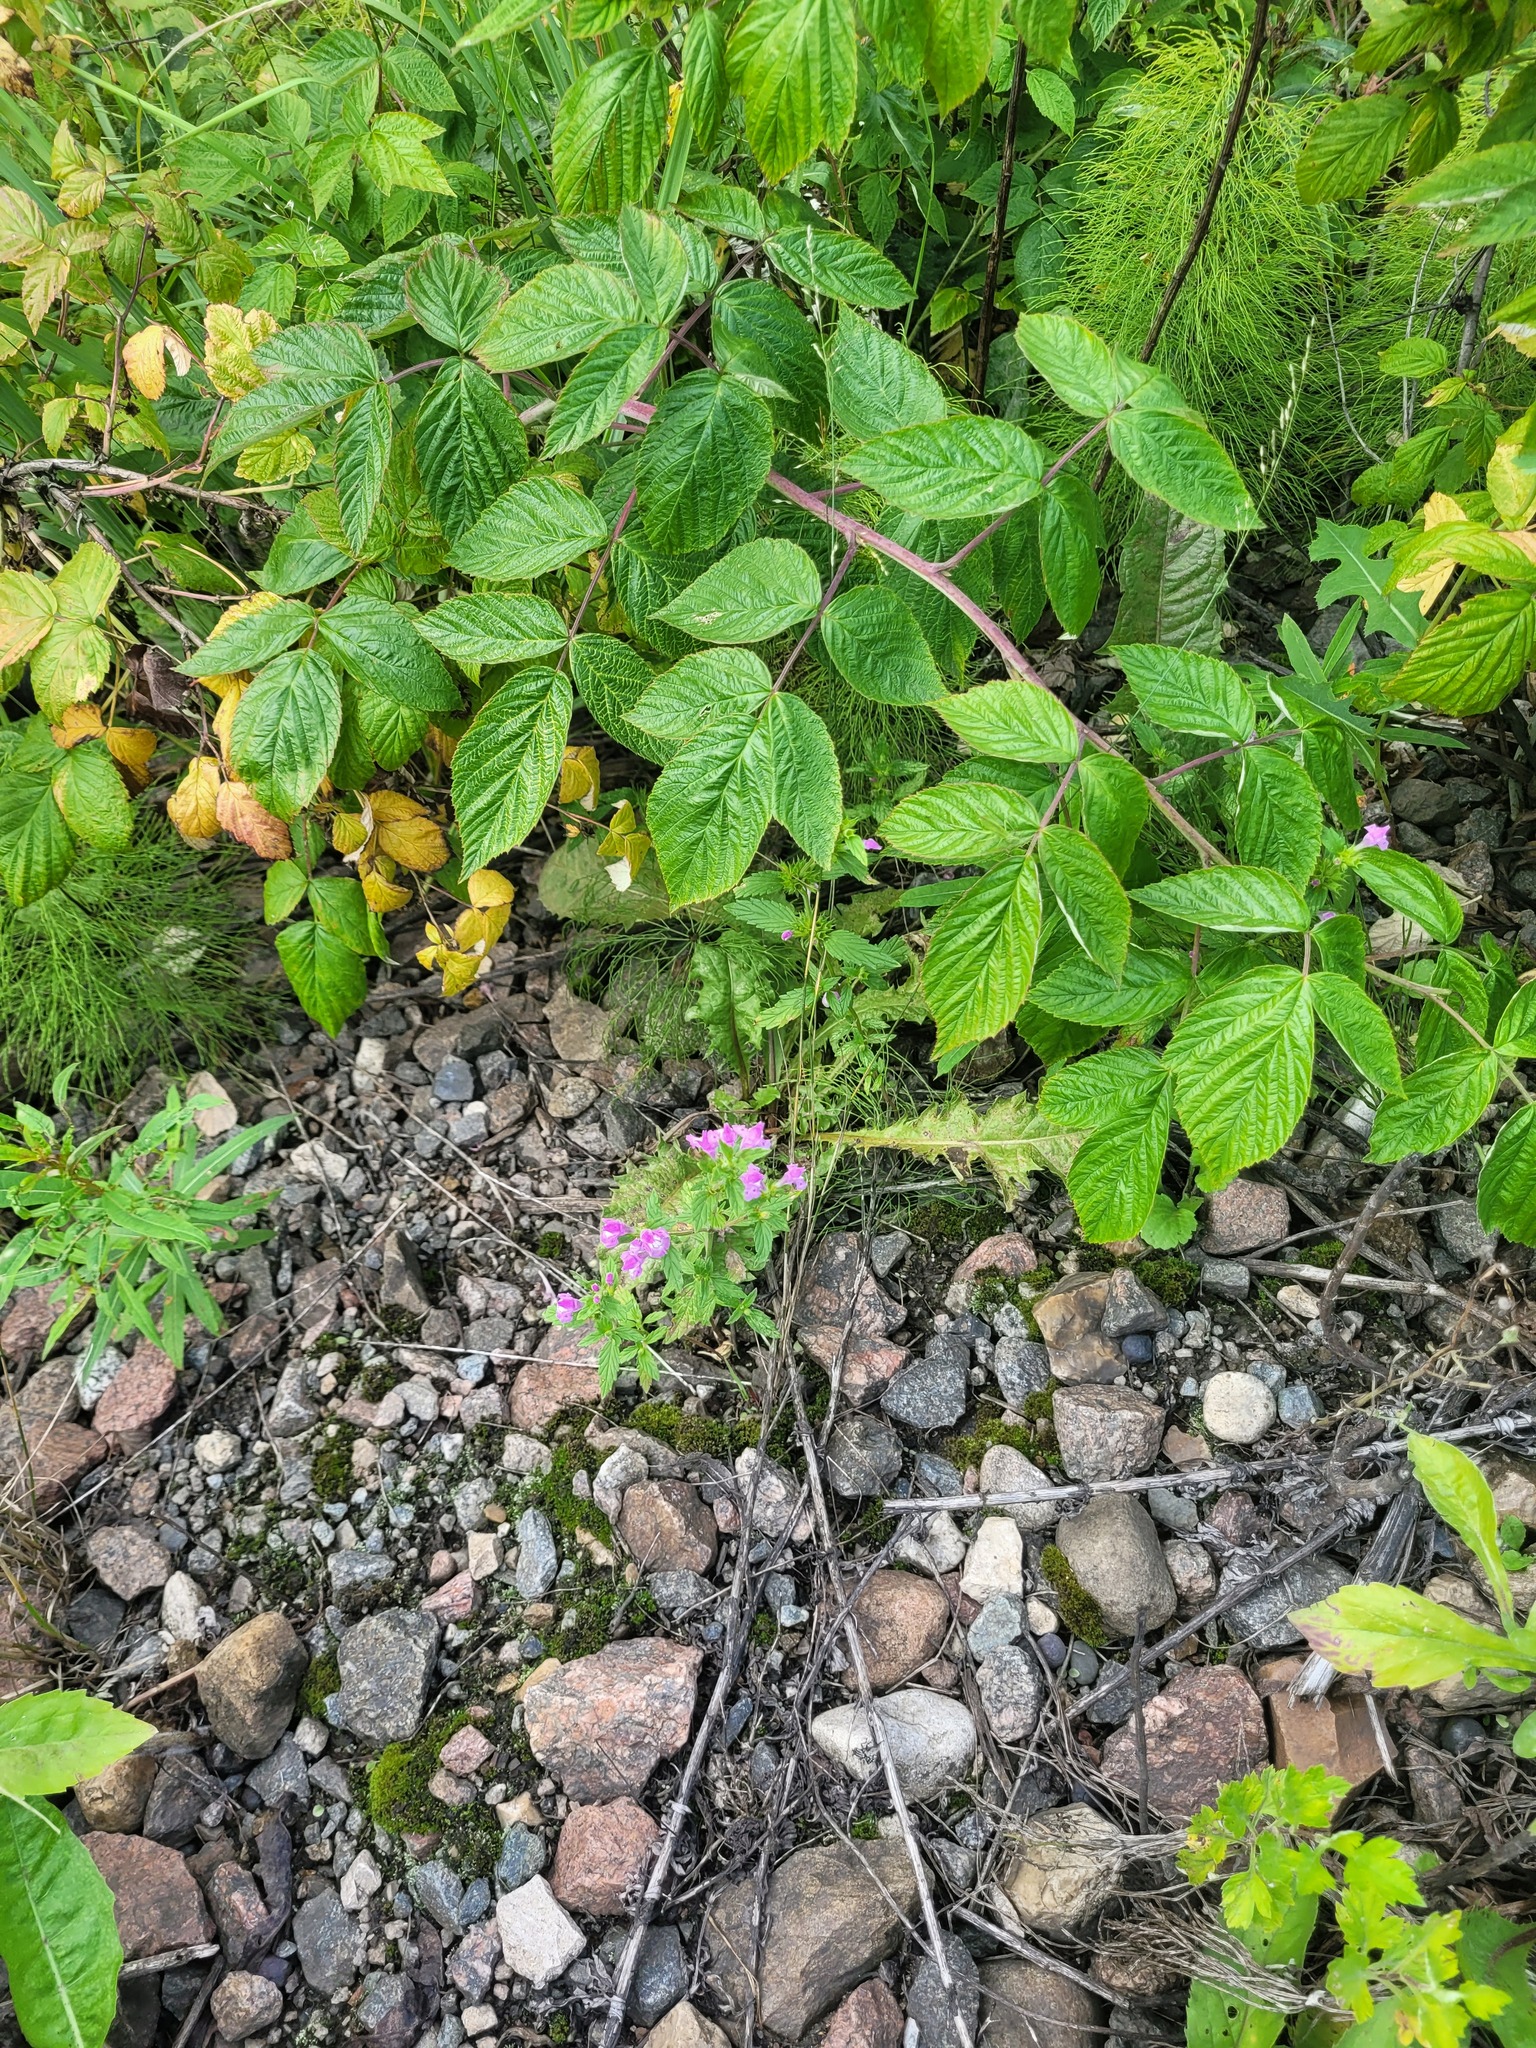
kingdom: Plantae
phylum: Tracheophyta
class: Magnoliopsida
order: Lamiales
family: Lamiaceae
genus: Galeopsis
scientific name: Galeopsis ladanum
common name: Broad-leaved hemp-nettle
